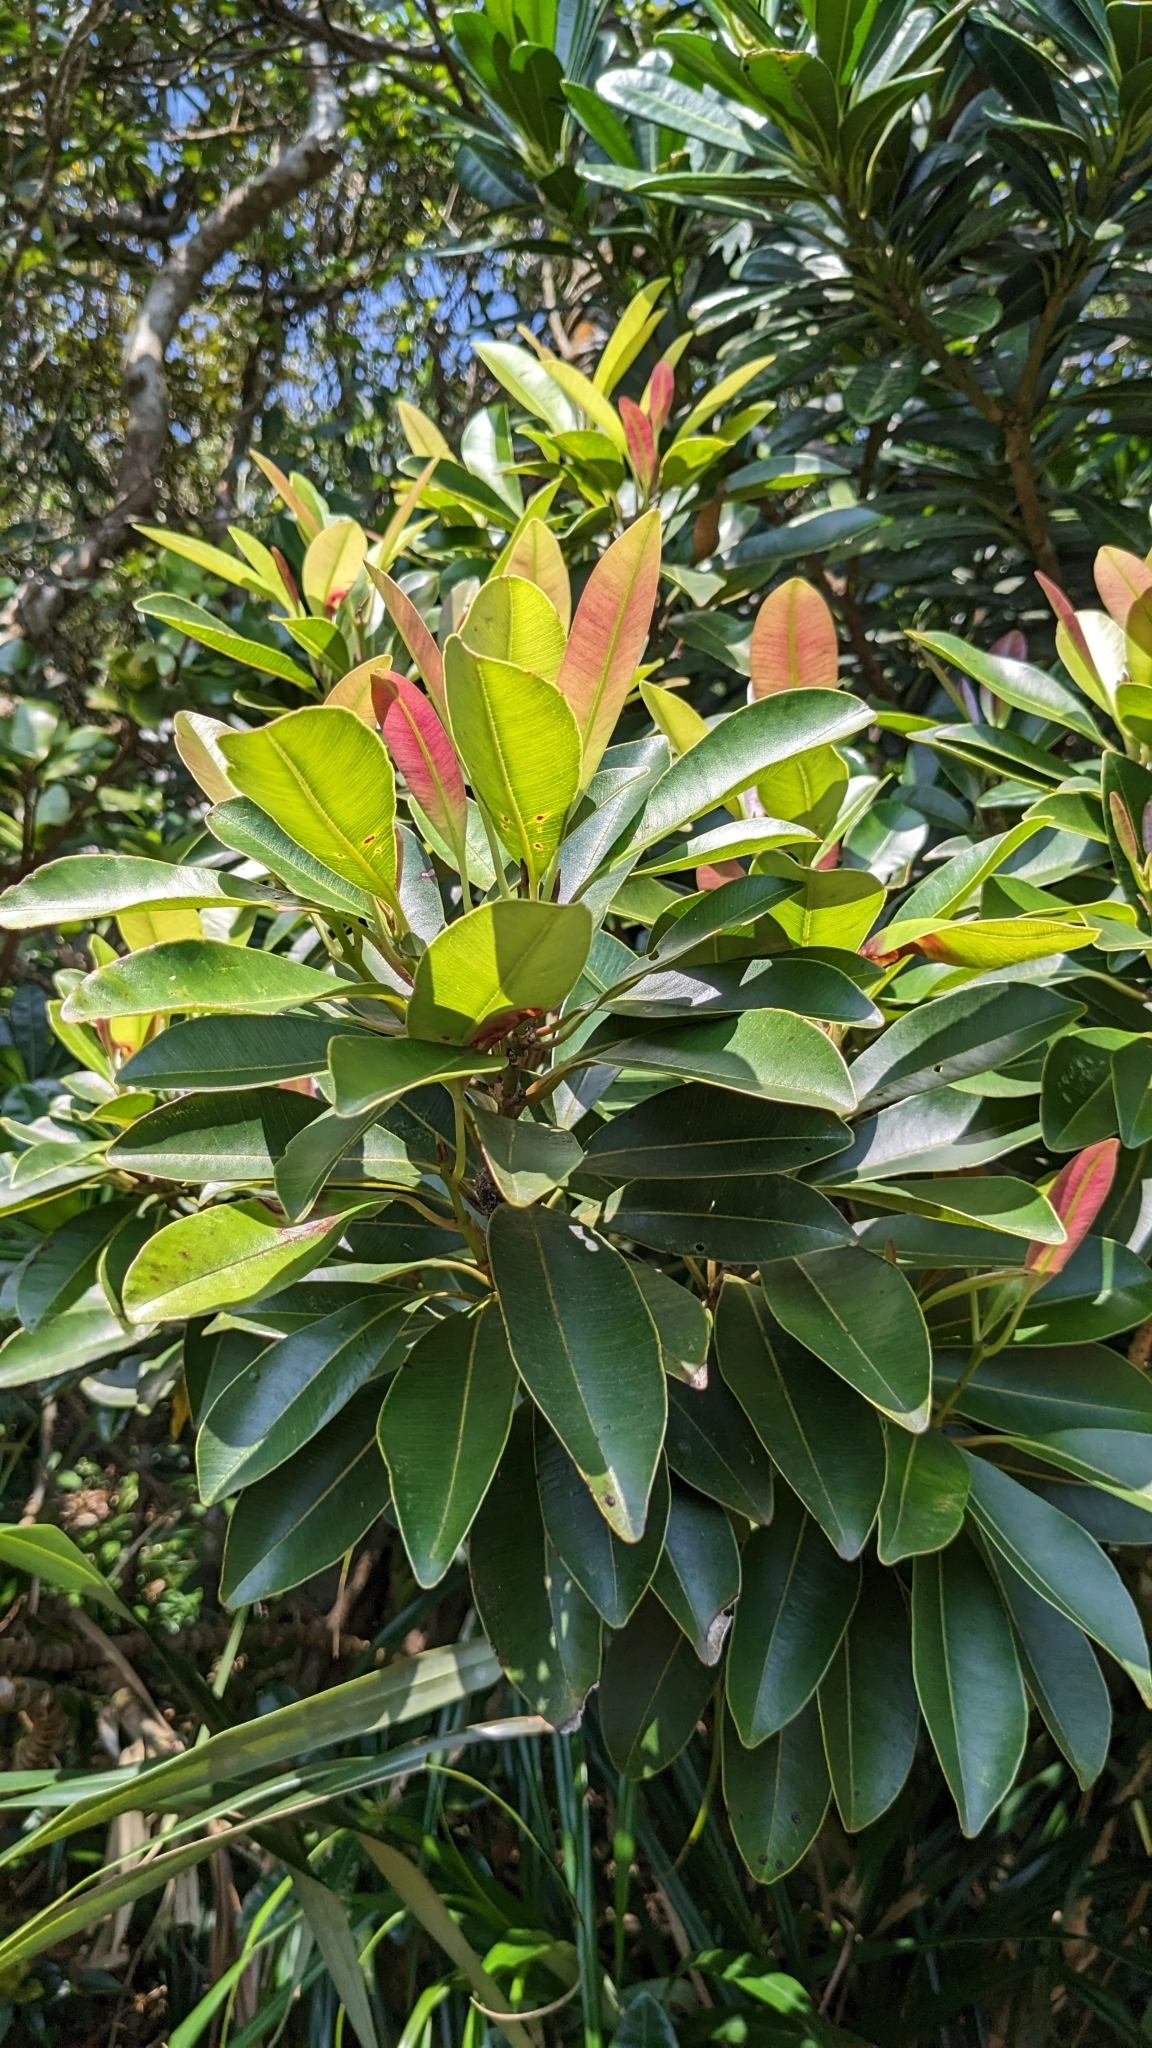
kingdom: Plantae
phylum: Tracheophyta
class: Magnoliopsida
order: Malpighiales
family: Calophyllaceae
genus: Calophyllum
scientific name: Calophyllum blancoi
